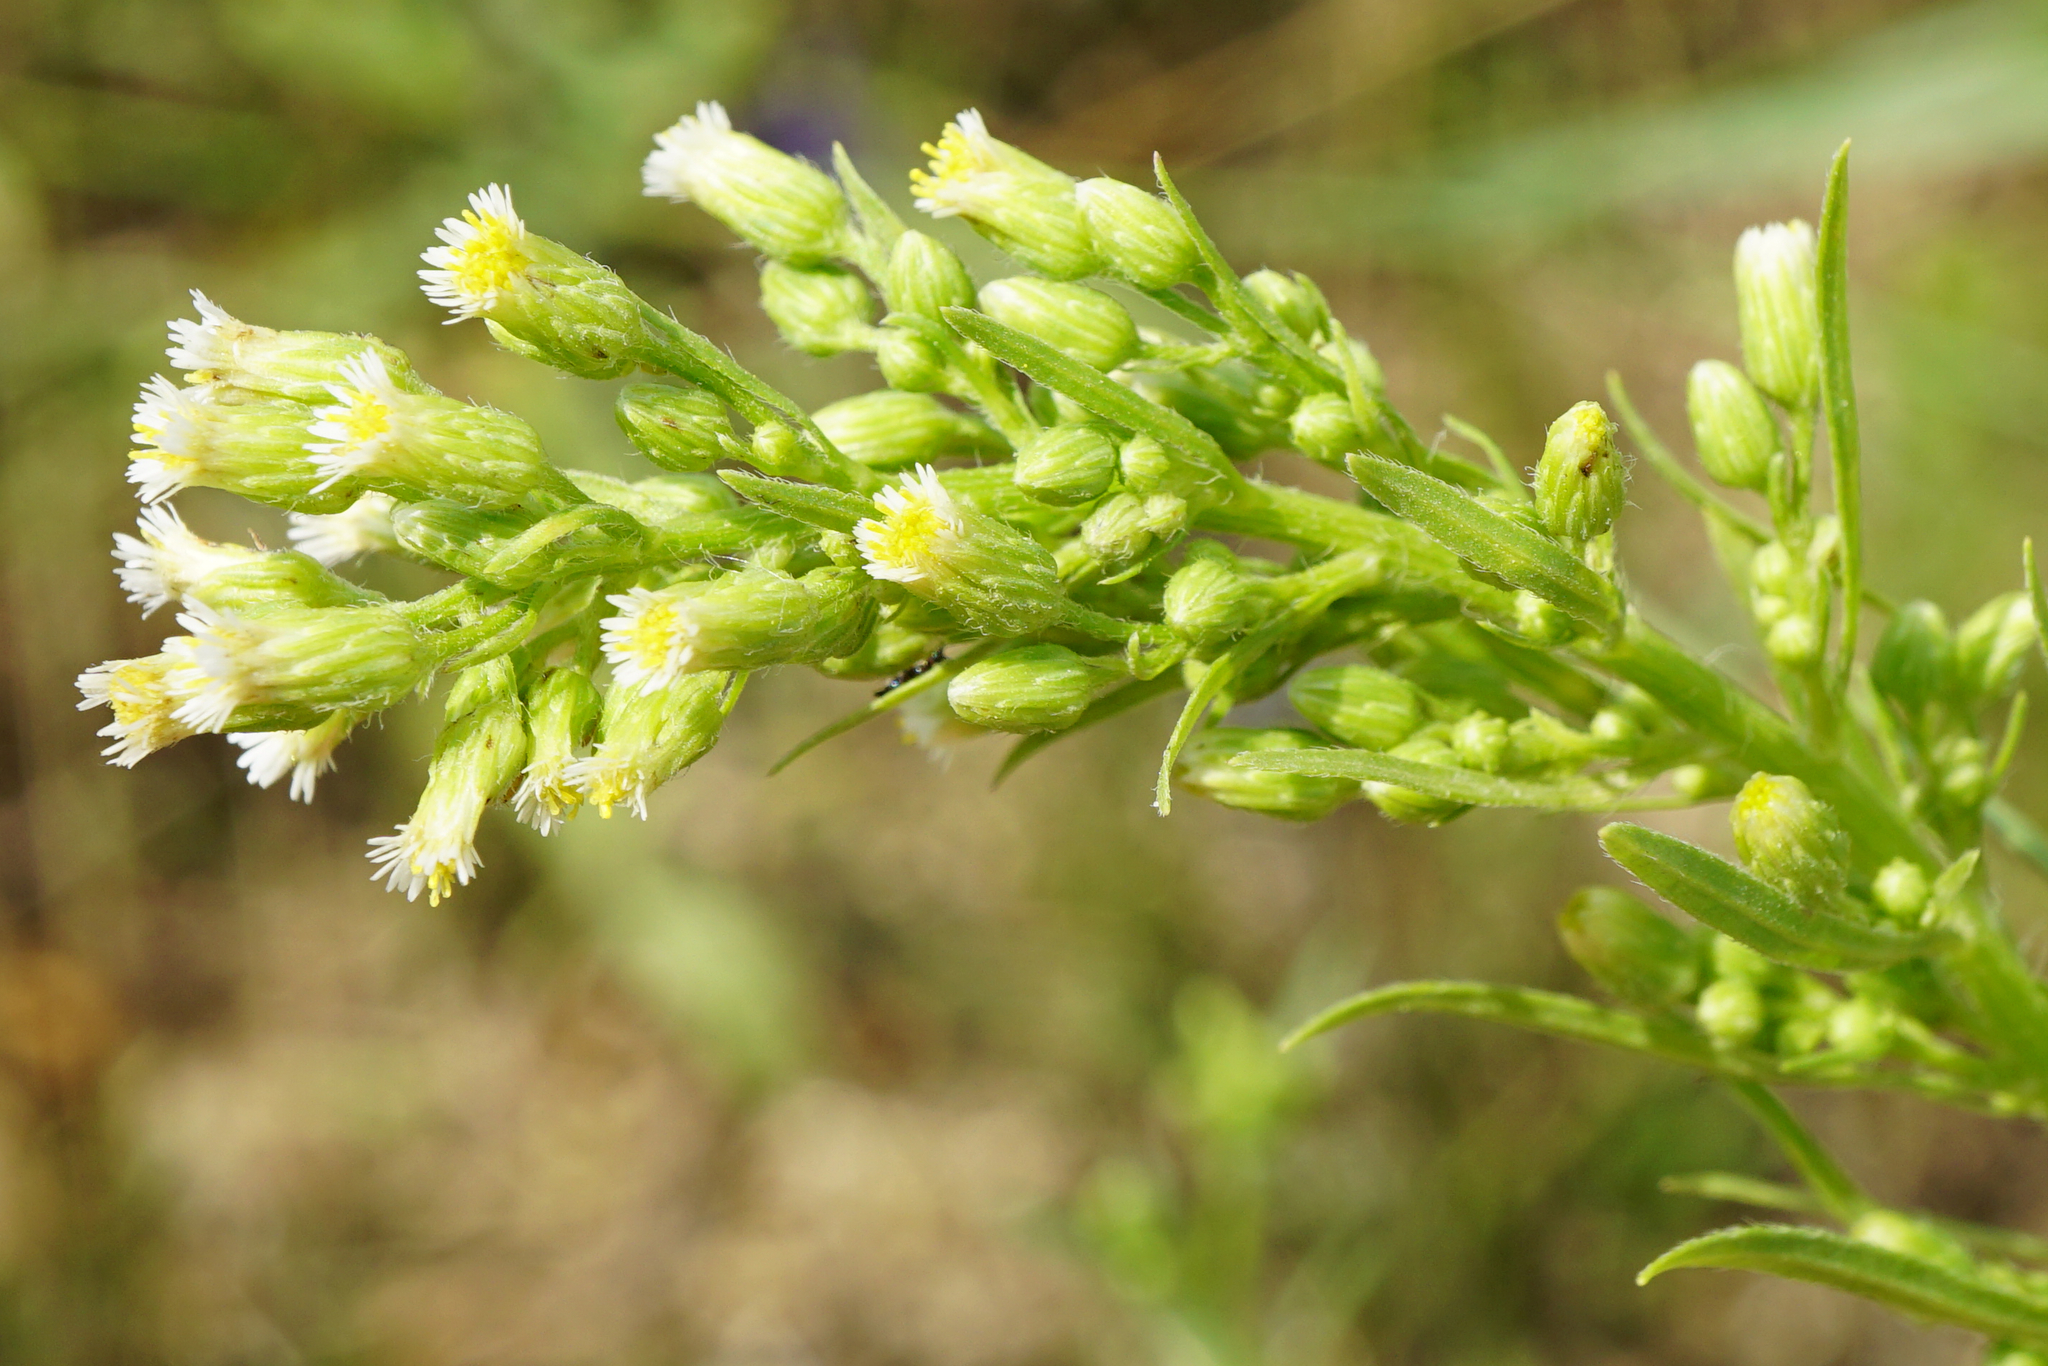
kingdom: Plantae
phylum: Tracheophyta
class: Magnoliopsida
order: Asterales
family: Asteraceae
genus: Erigeron
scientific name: Erigeron canadensis
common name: Canadian fleabane
